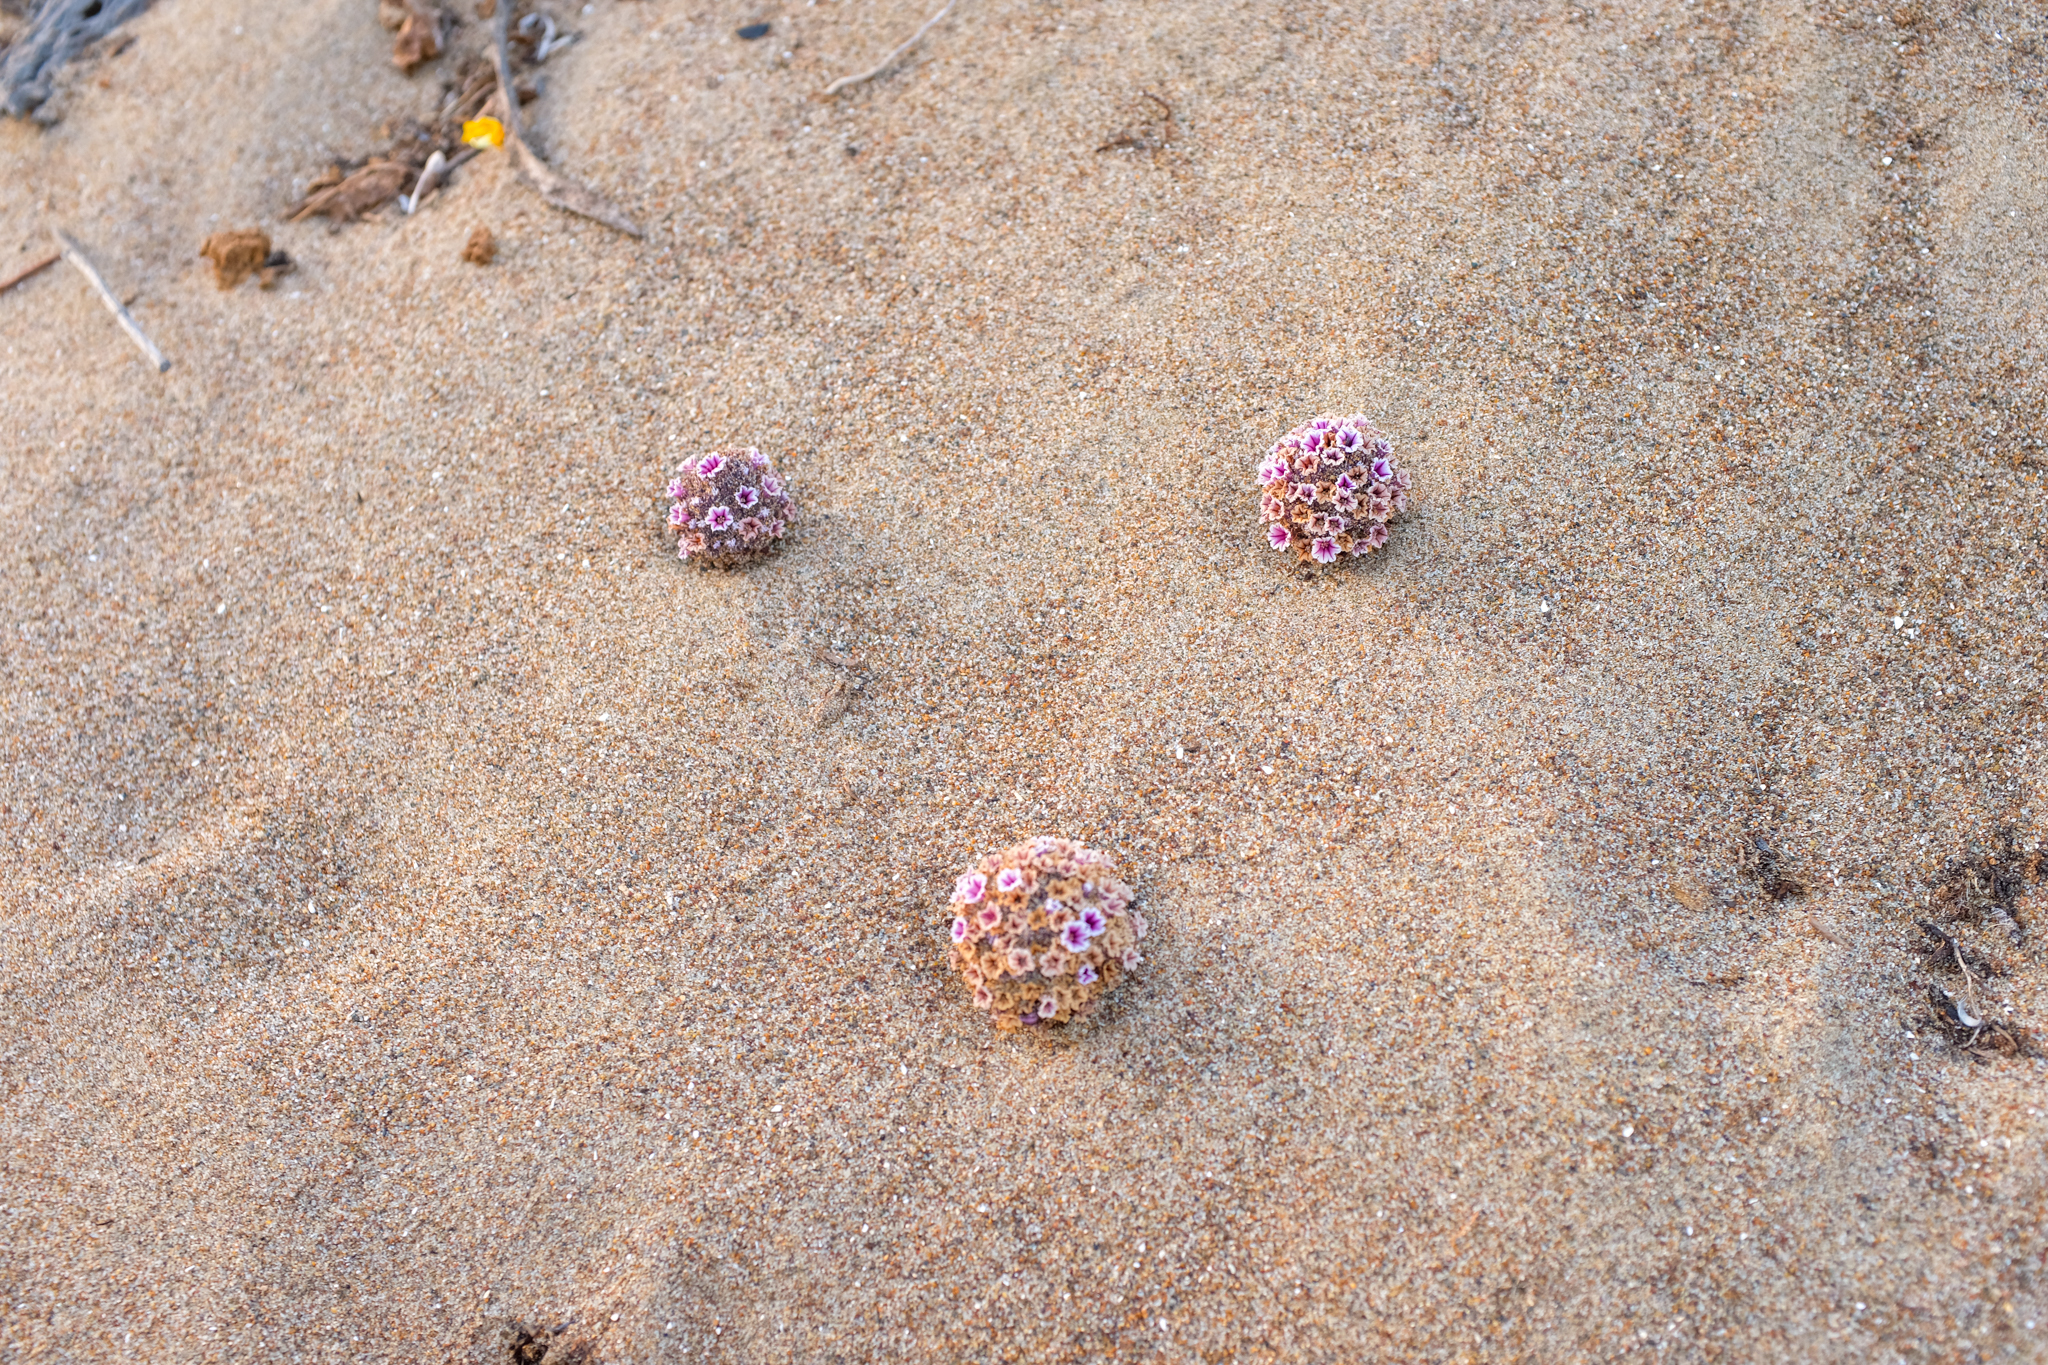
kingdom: Plantae
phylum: Tracheophyta
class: Magnoliopsida
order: Boraginales
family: Lennoaceae
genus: Pholisma
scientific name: Pholisma arenarium
